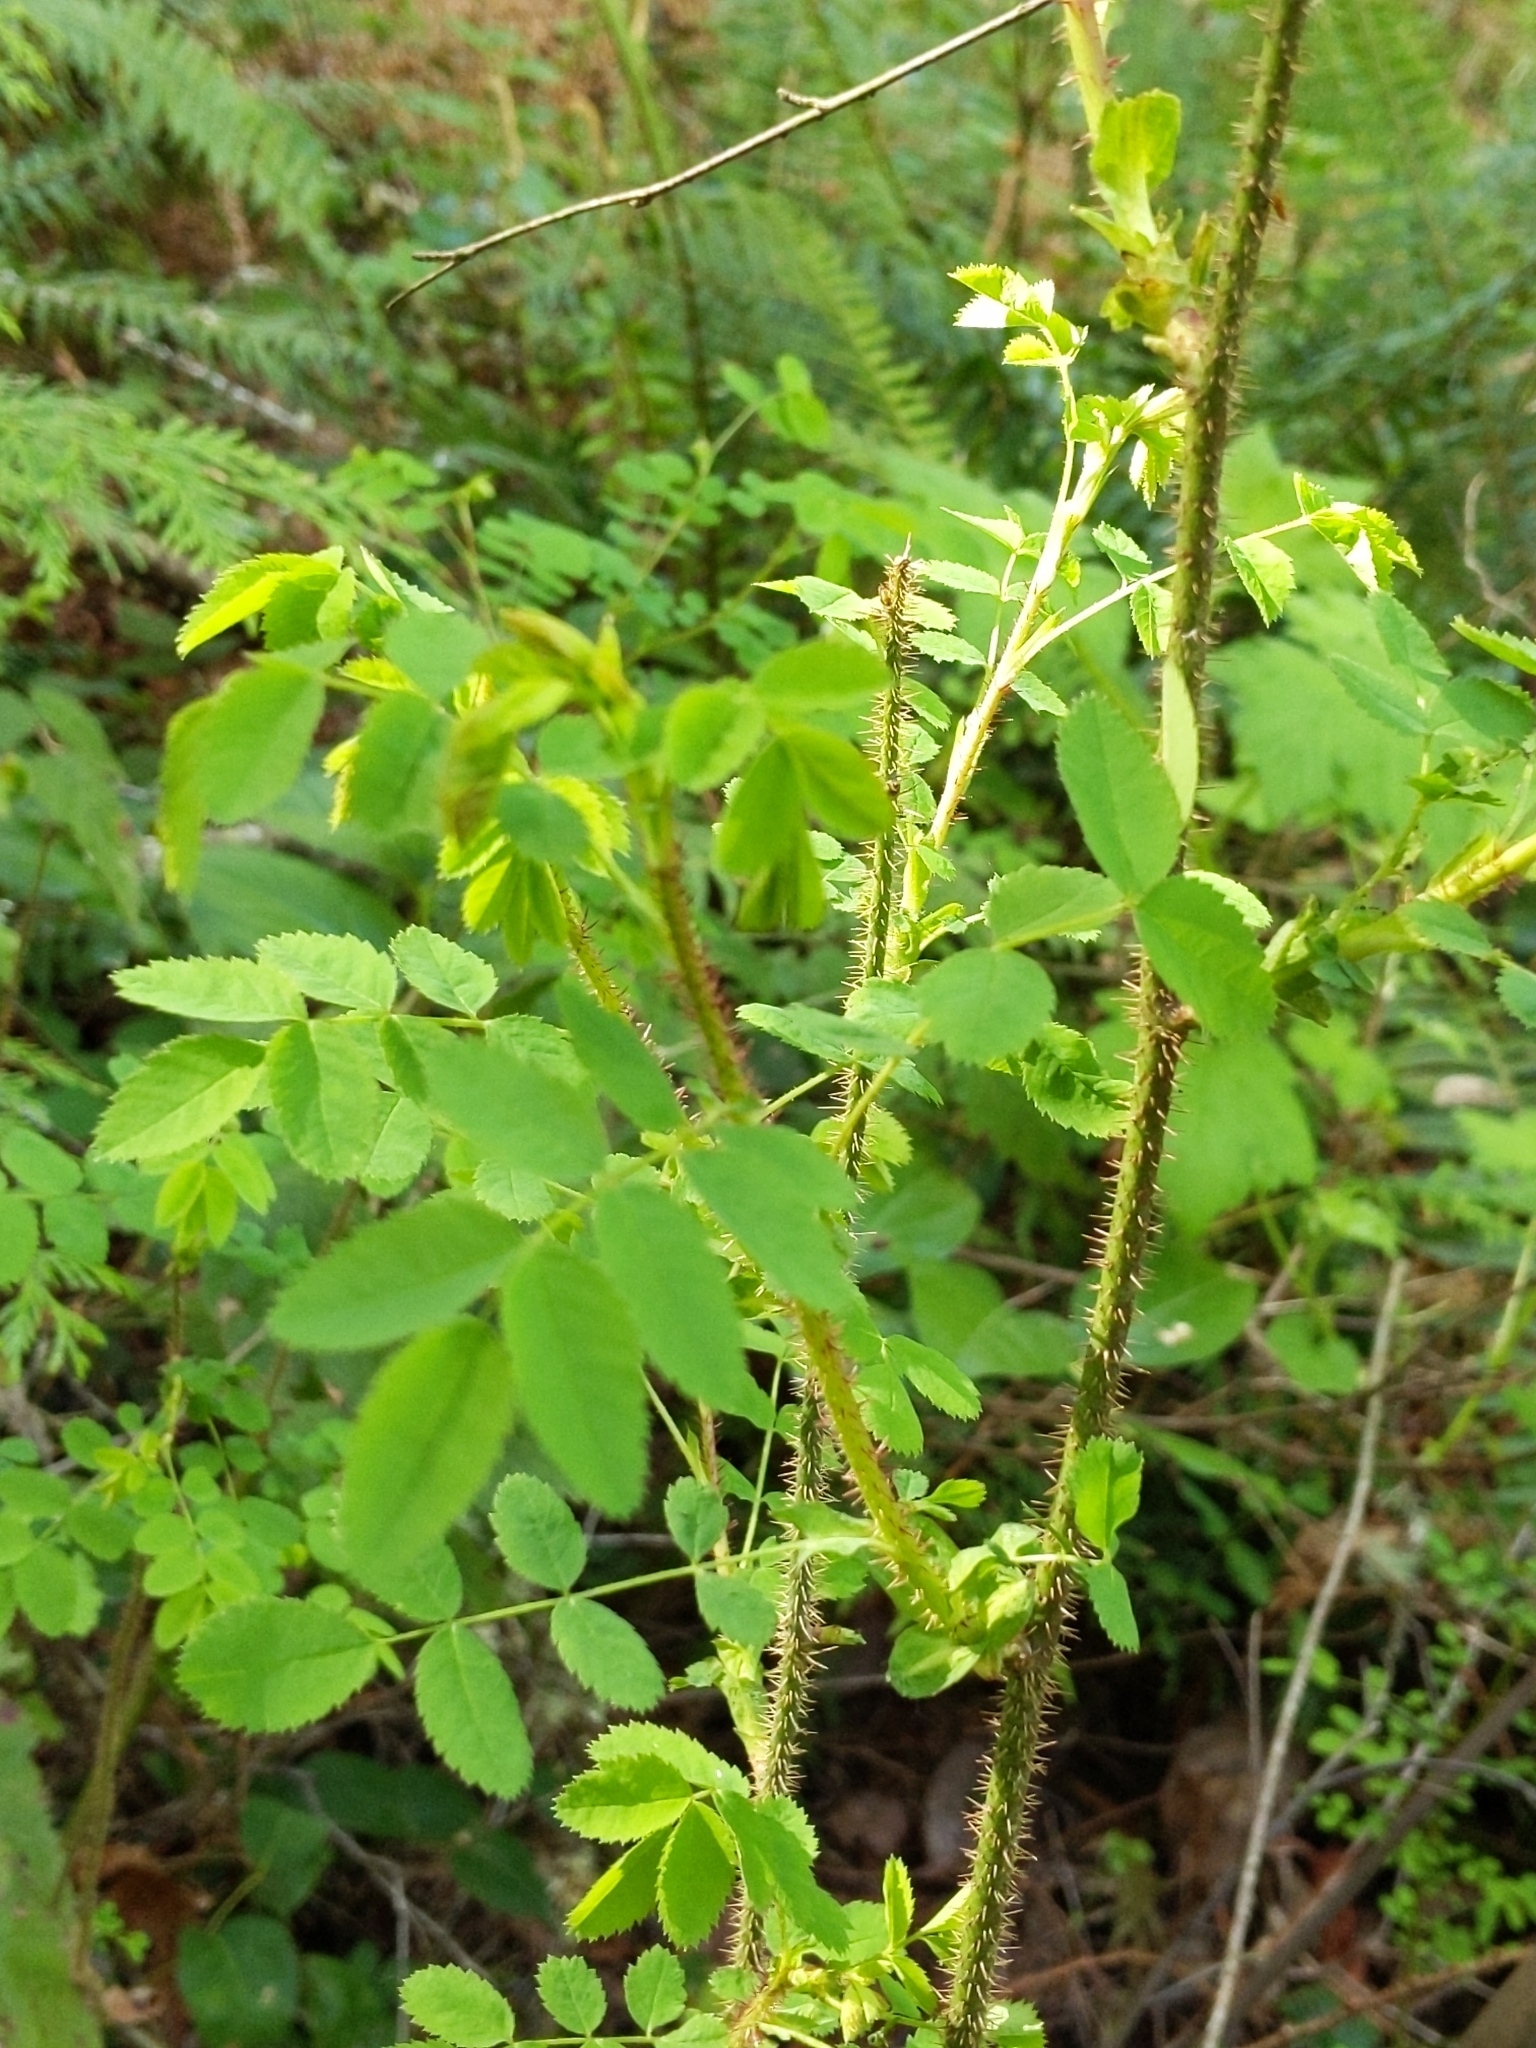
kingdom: Plantae
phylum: Tracheophyta
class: Magnoliopsida
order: Rosales
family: Rosaceae
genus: Rosa
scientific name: Rosa gymnocarpa
